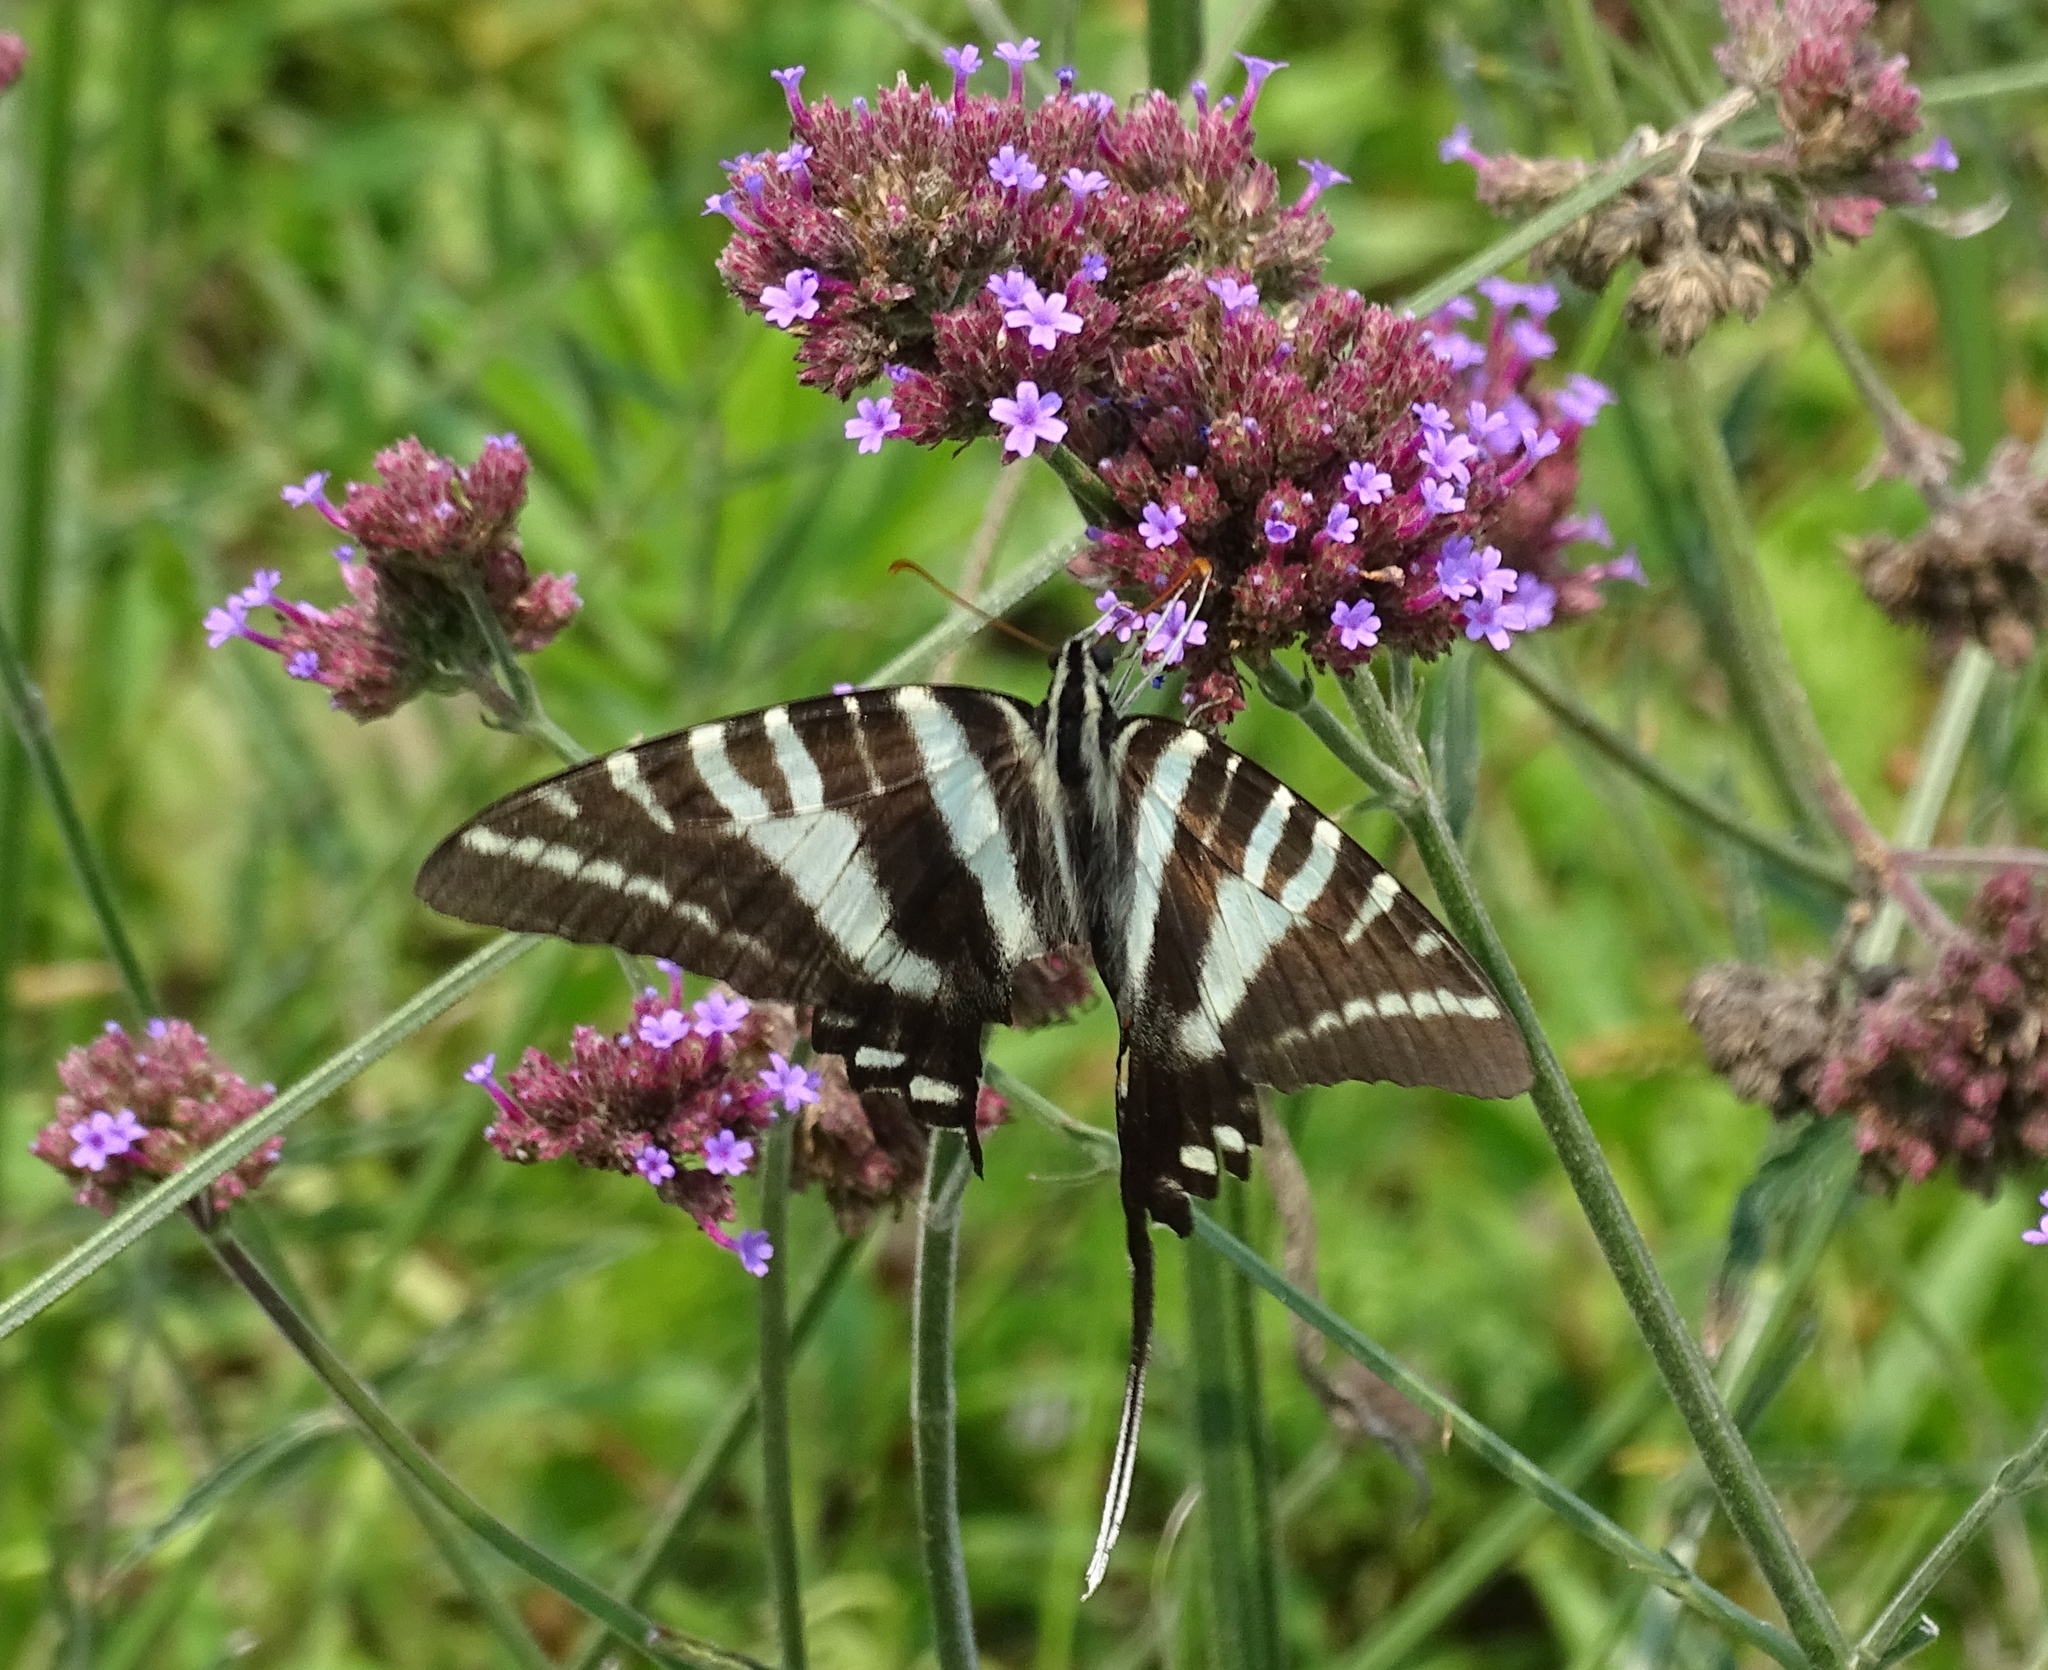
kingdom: Animalia
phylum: Arthropoda
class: Insecta
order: Lepidoptera
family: Papilionidae
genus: Protographium
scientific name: Protographium marcellus
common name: Zebra swallowtail
